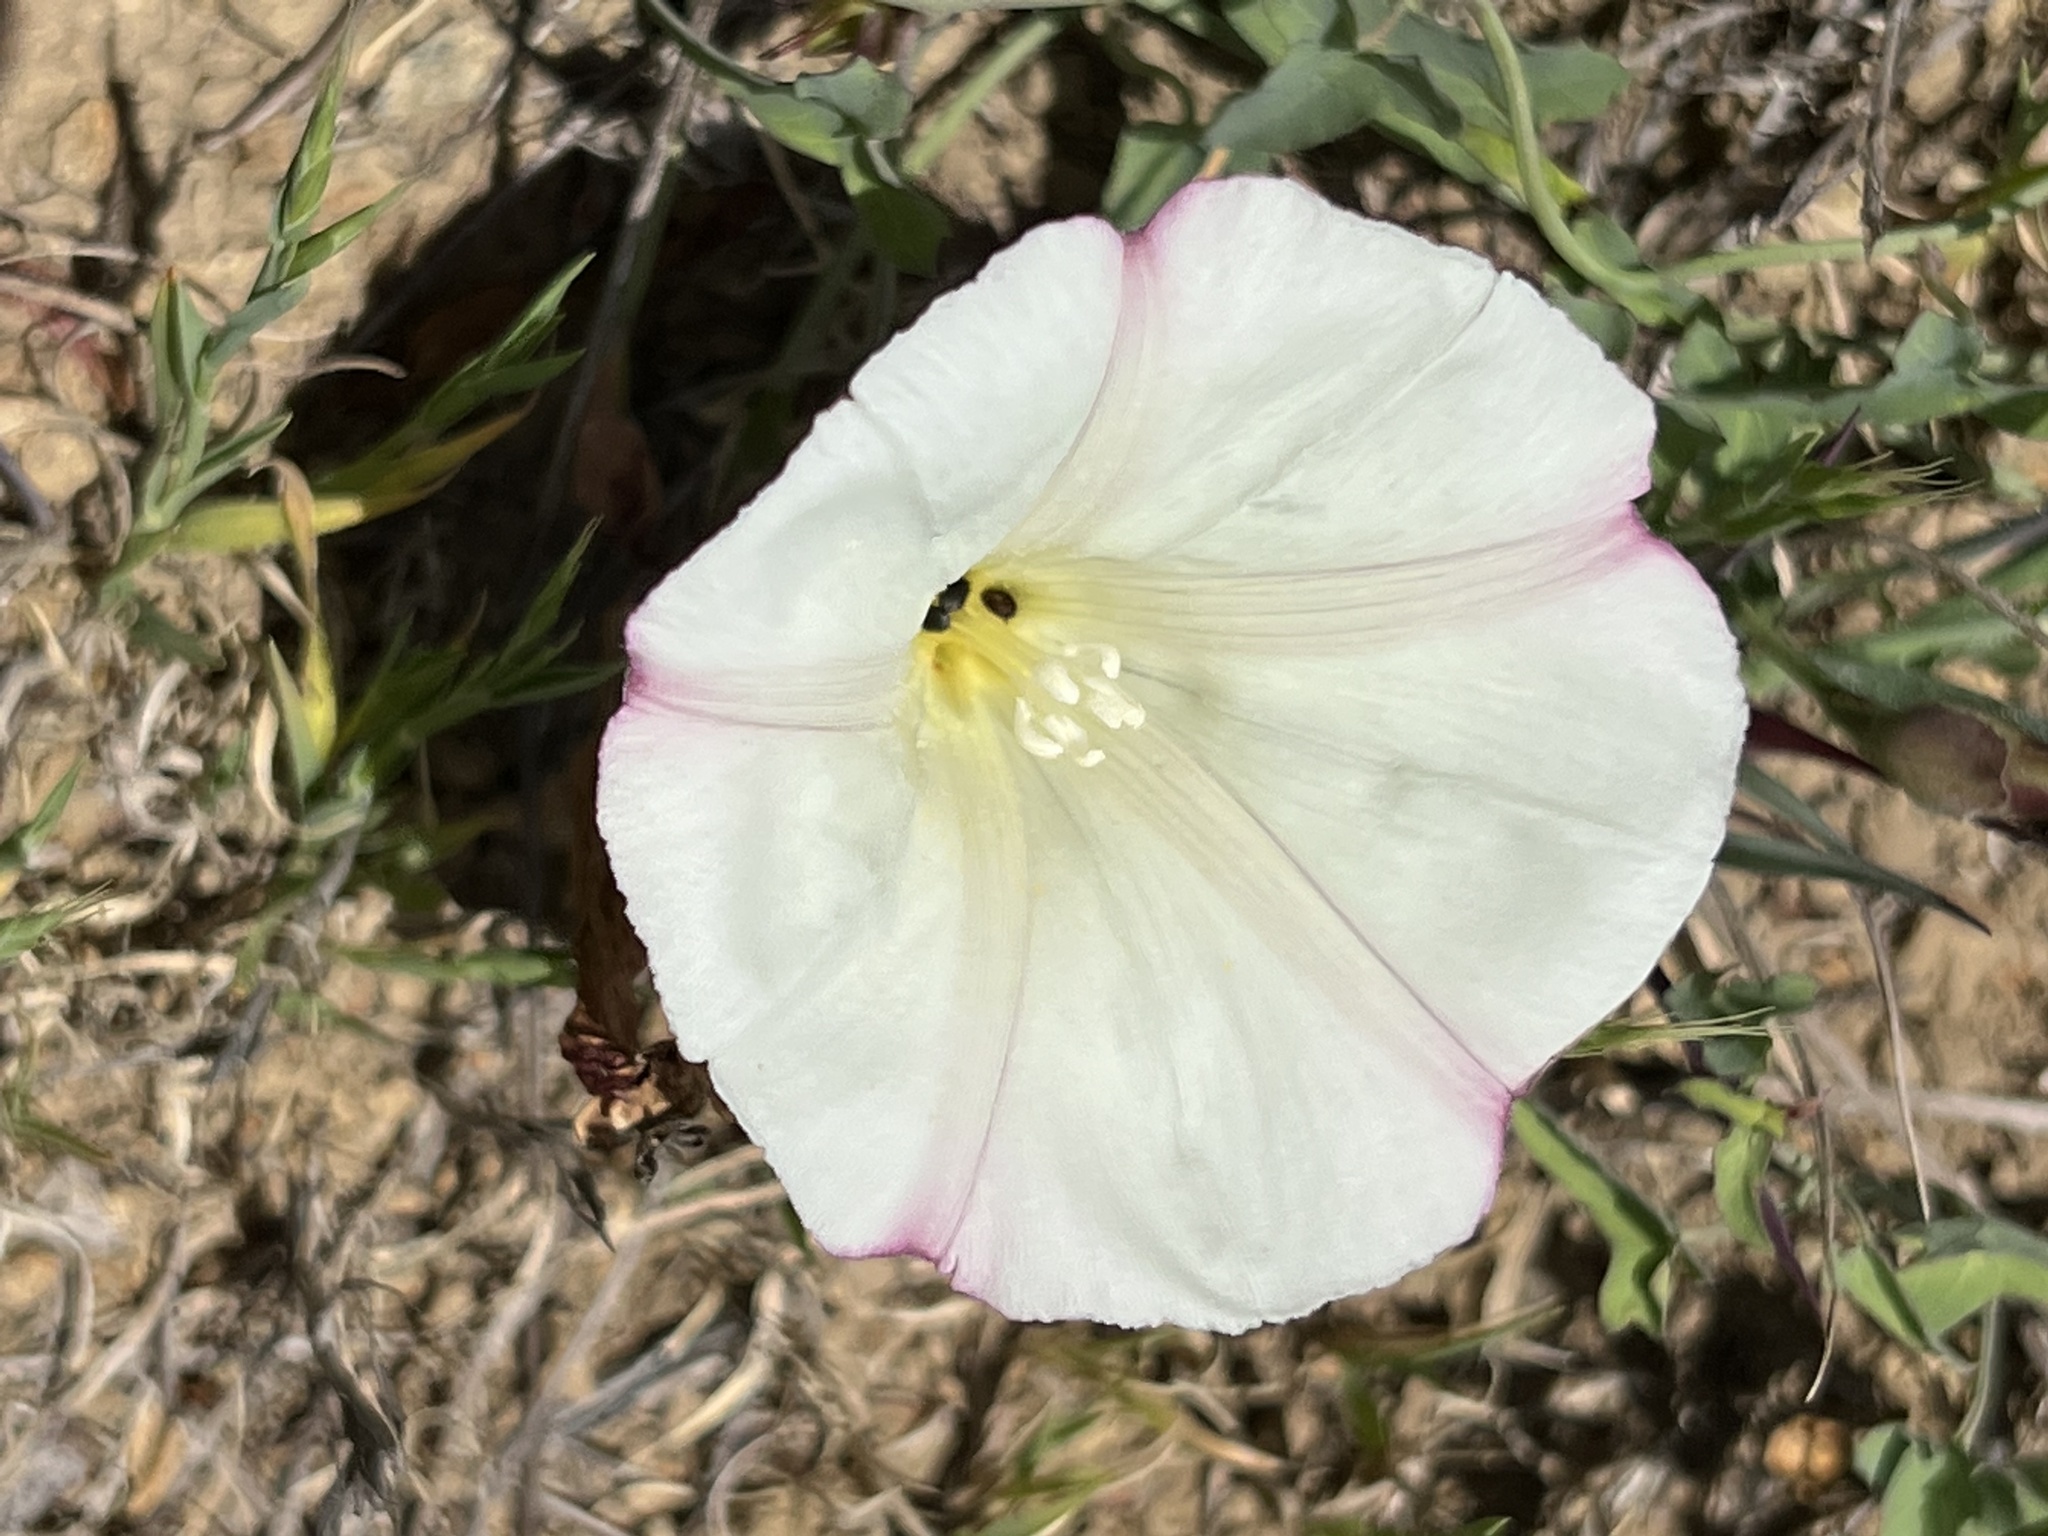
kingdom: Plantae
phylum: Tracheophyta
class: Magnoliopsida
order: Solanales
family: Convolvulaceae
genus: Calystegia
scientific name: Calystegia purpurata
